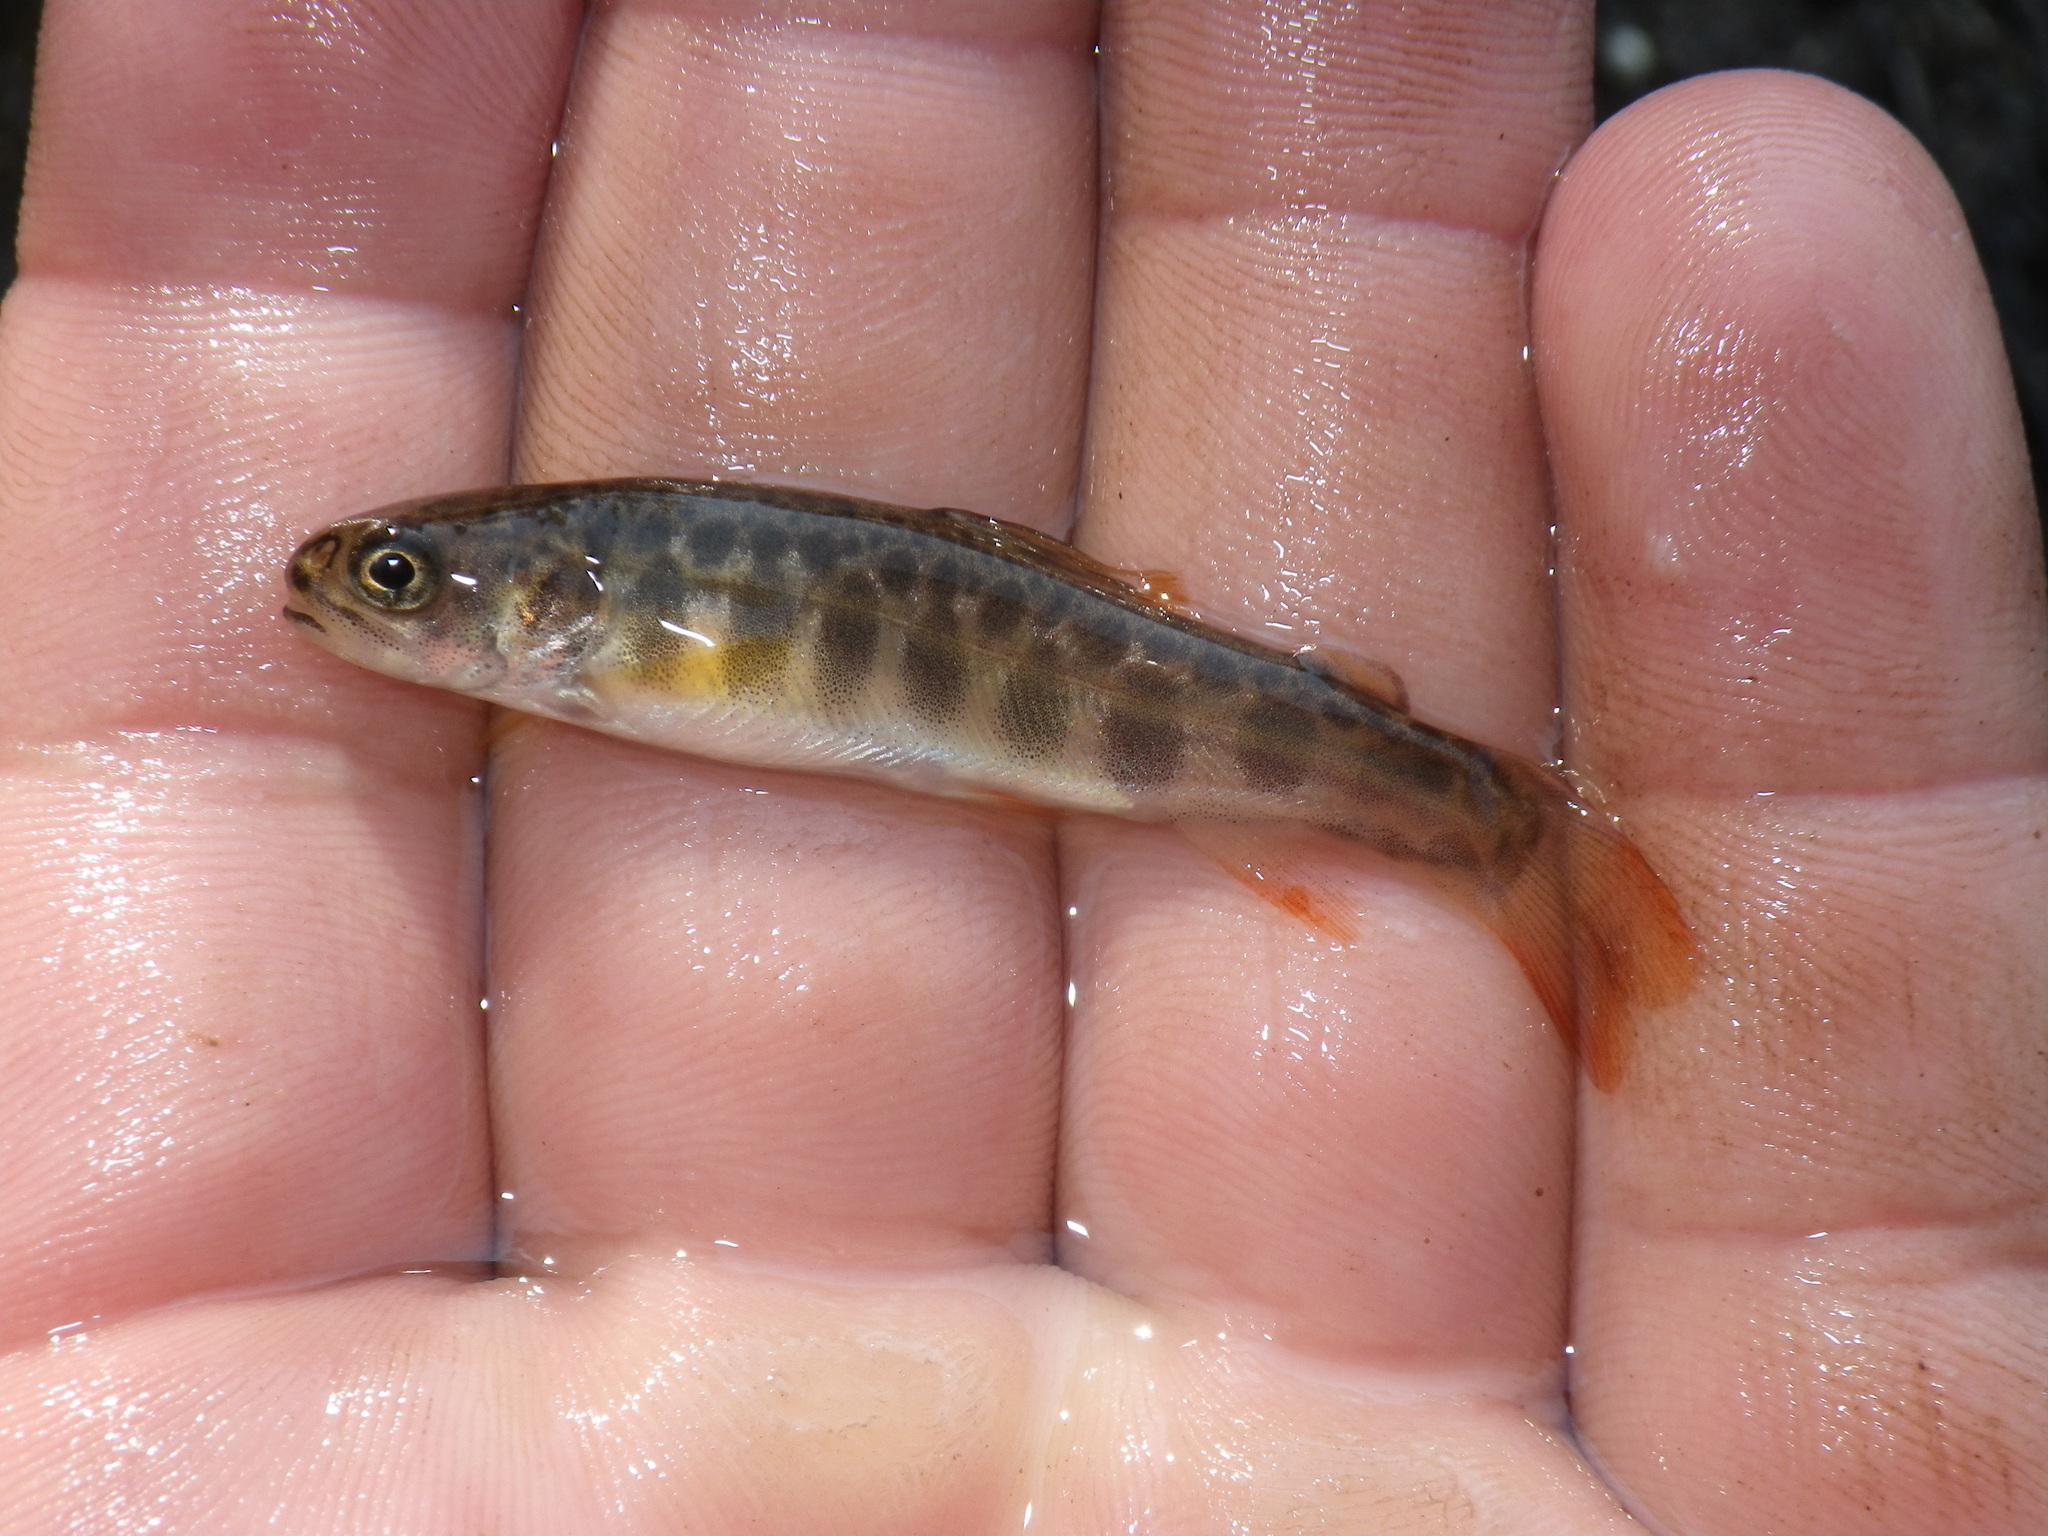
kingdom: Animalia
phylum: Chordata
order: Salmoniformes
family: Salmonidae
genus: Salvelinus
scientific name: Salvelinus fontinalis
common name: Brook trout
